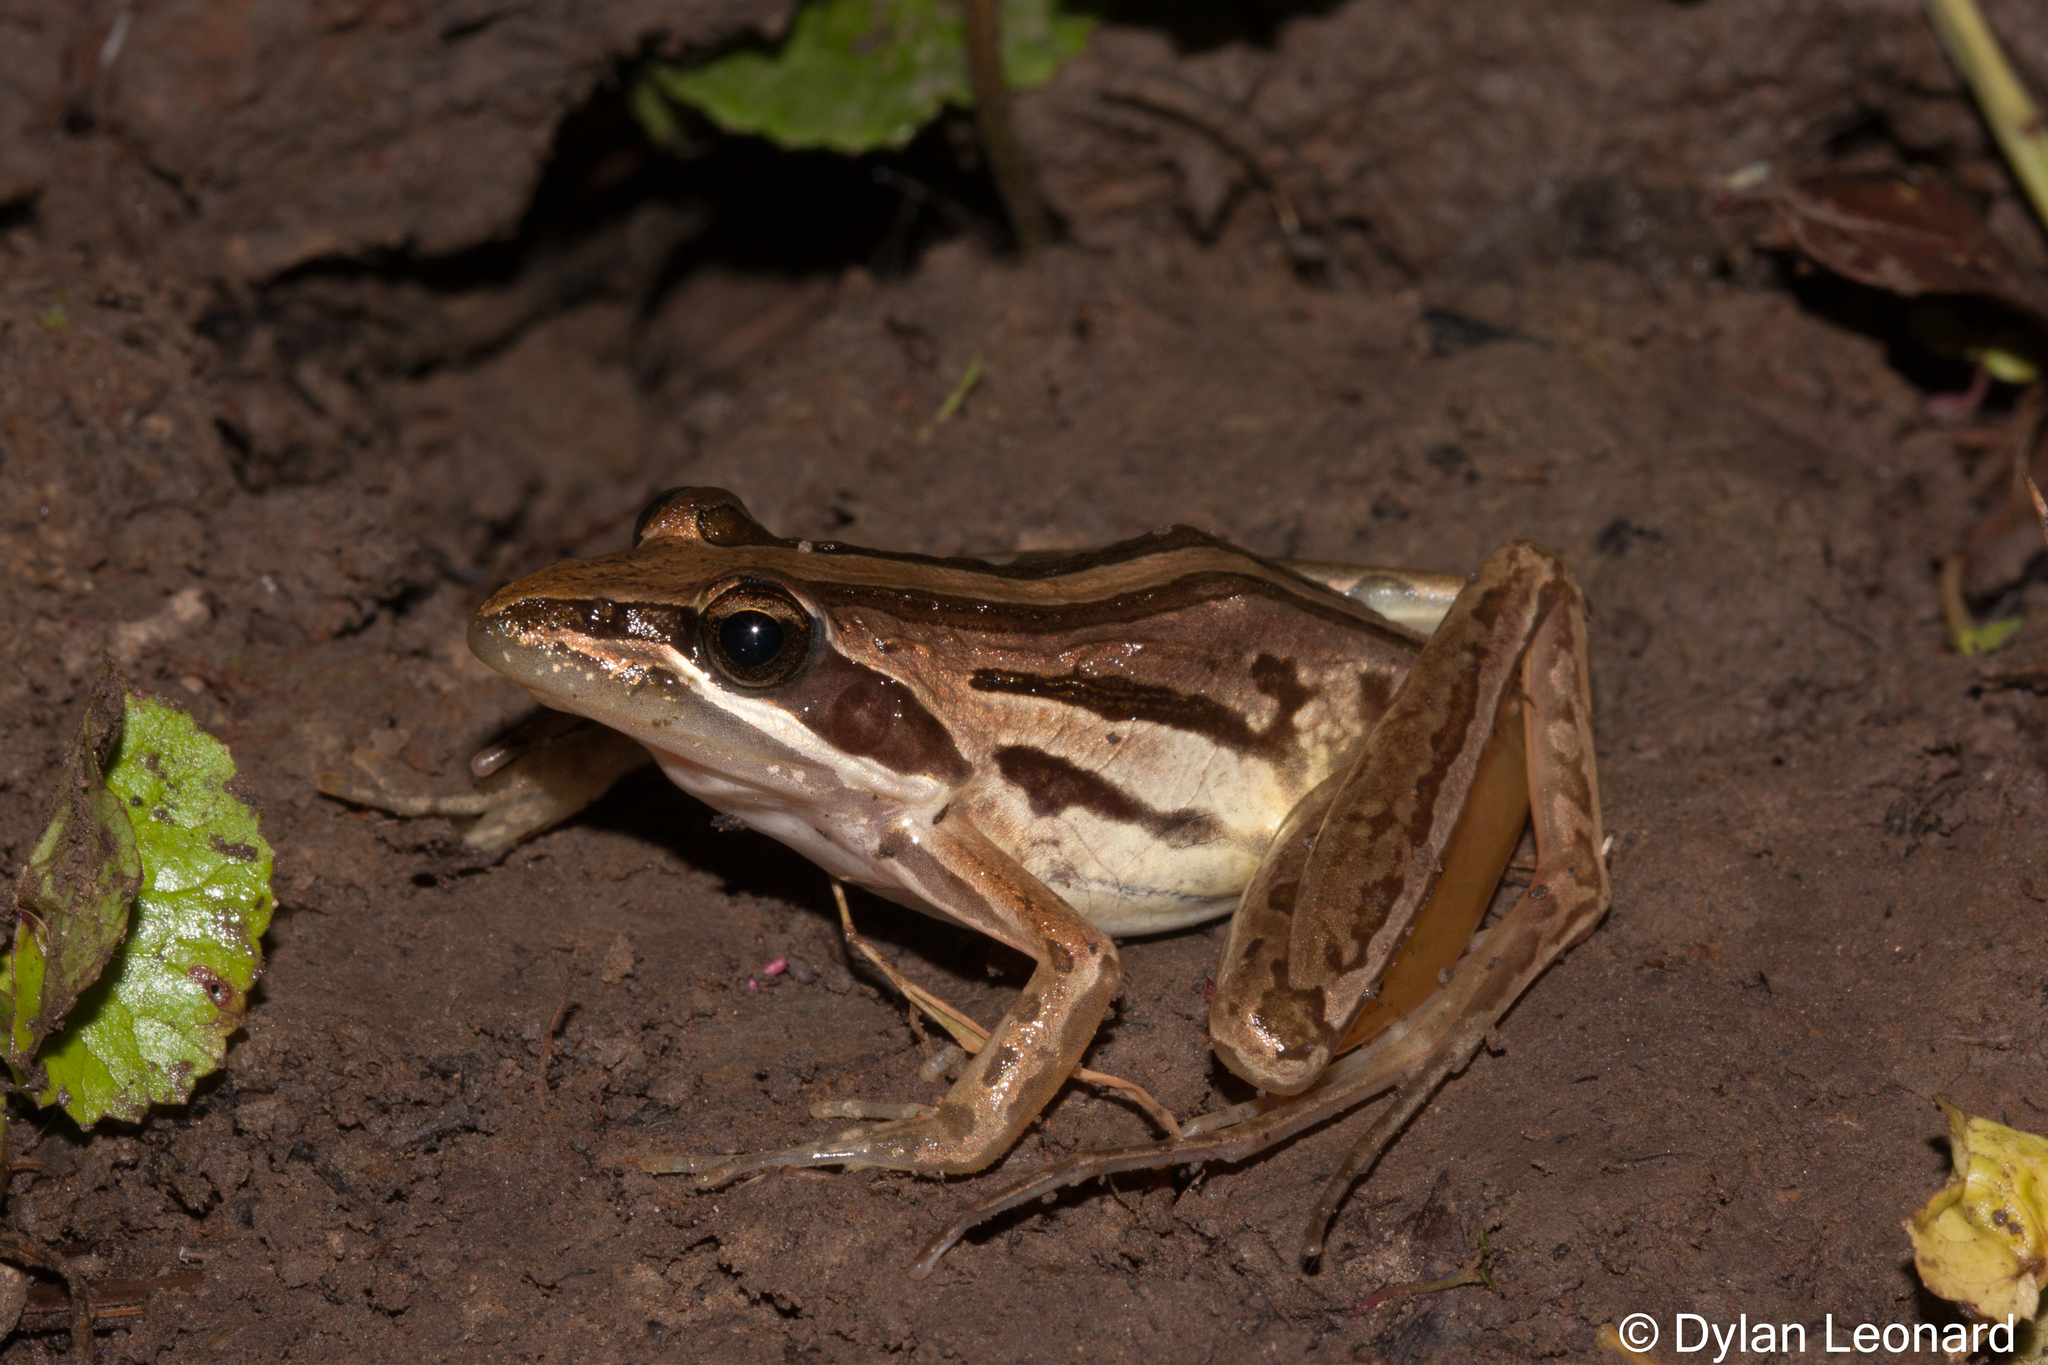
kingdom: Animalia
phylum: Chordata
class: Amphibia
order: Anura
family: Pyxicephalidae
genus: Strongylopus
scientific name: Strongylopus fasciatus
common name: Striped stream frog
